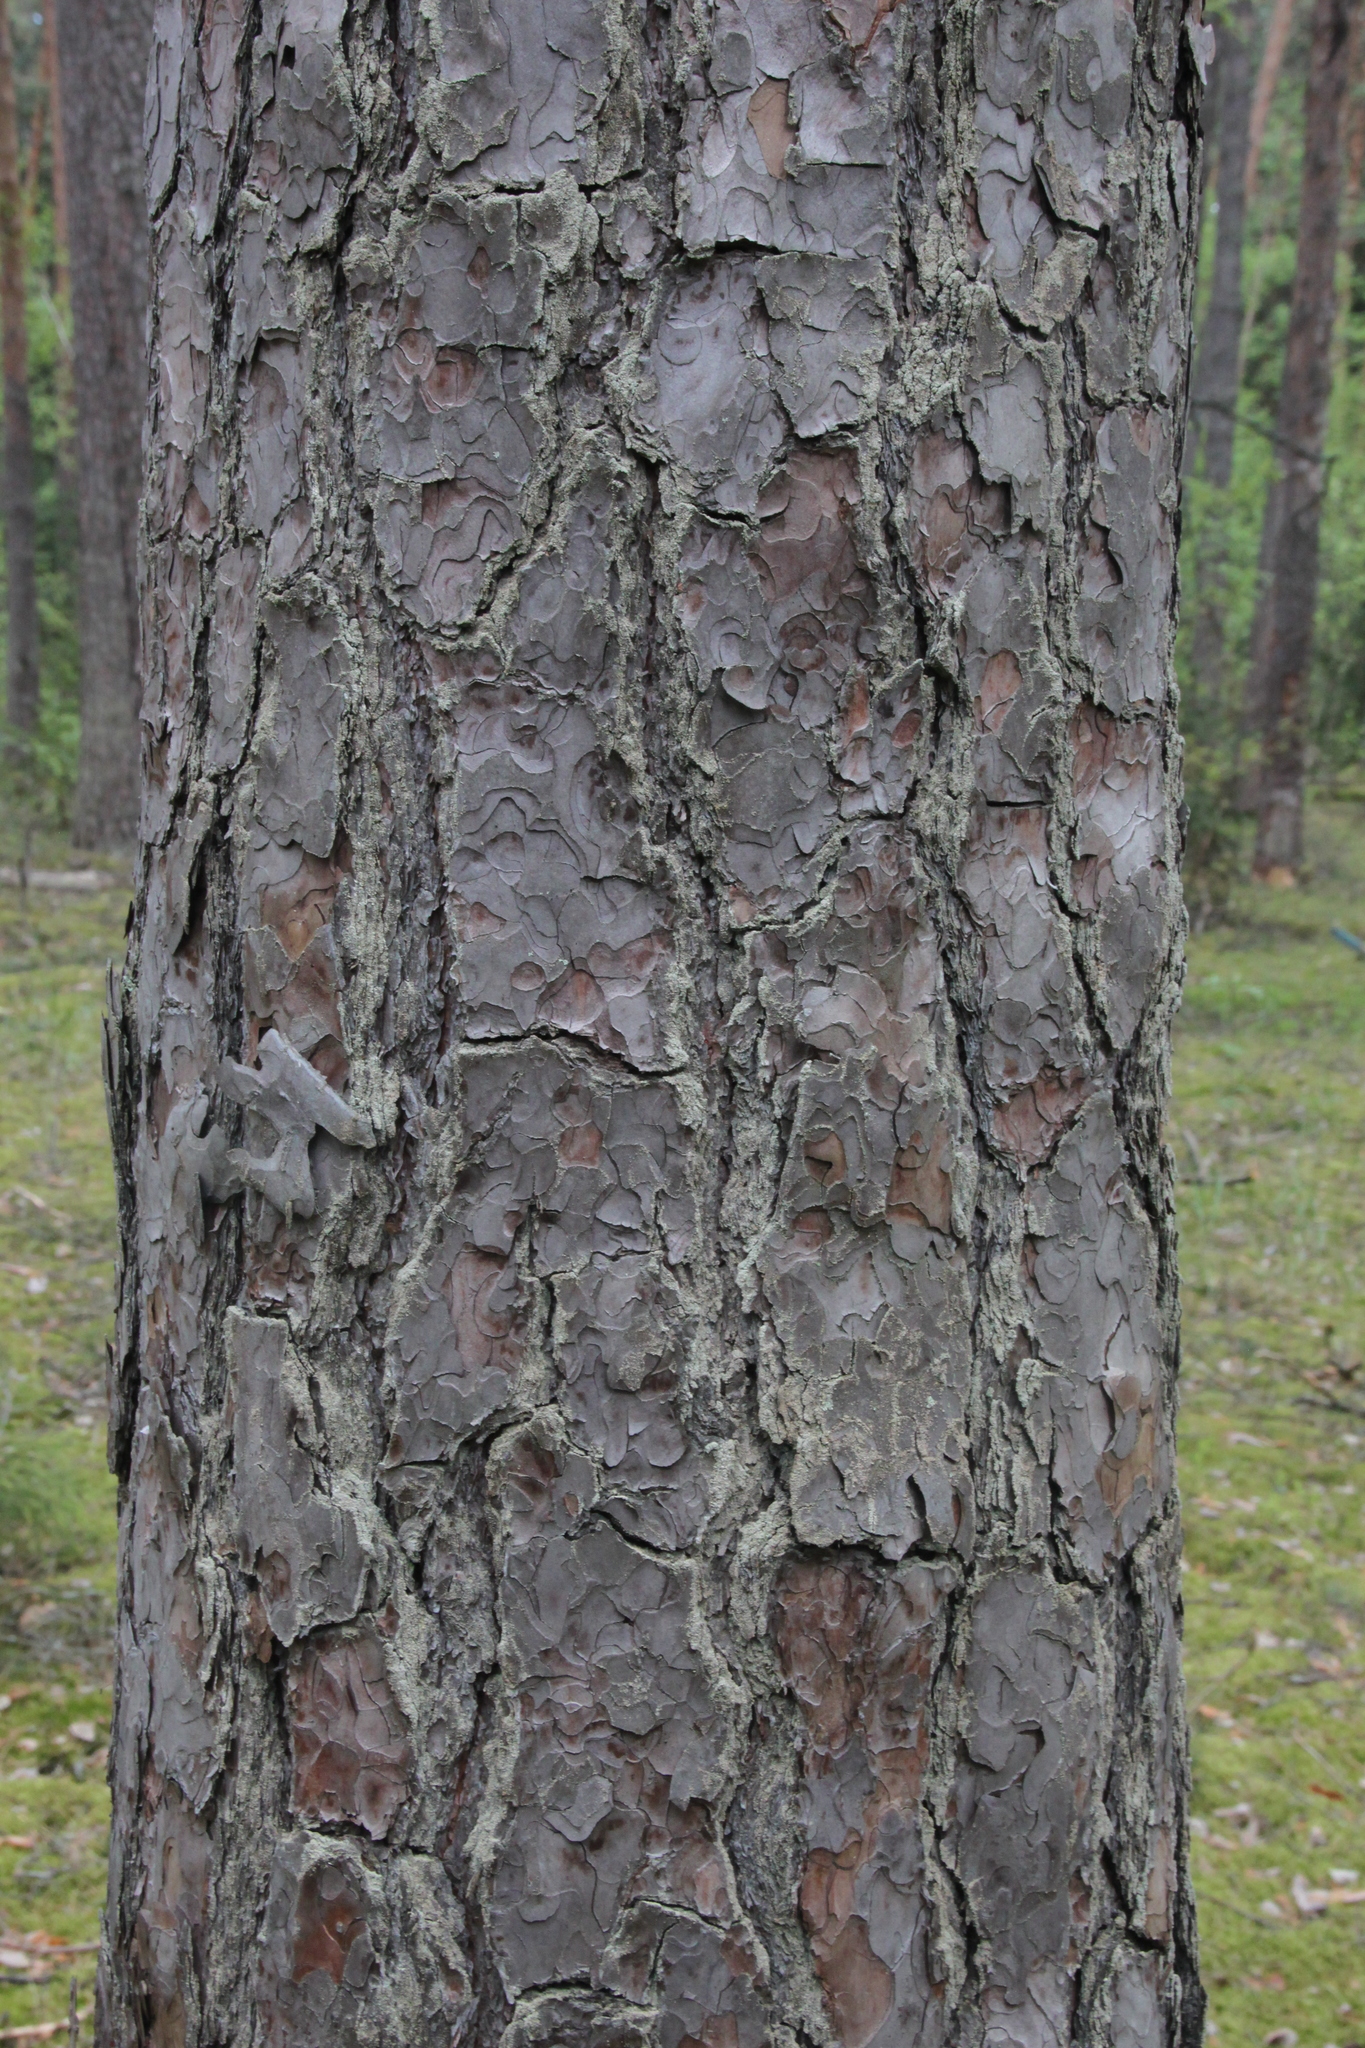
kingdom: Plantae
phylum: Tracheophyta
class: Pinopsida
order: Pinales
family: Pinaceae
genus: Pinus
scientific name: Pinus sylvestris
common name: Scots pine
